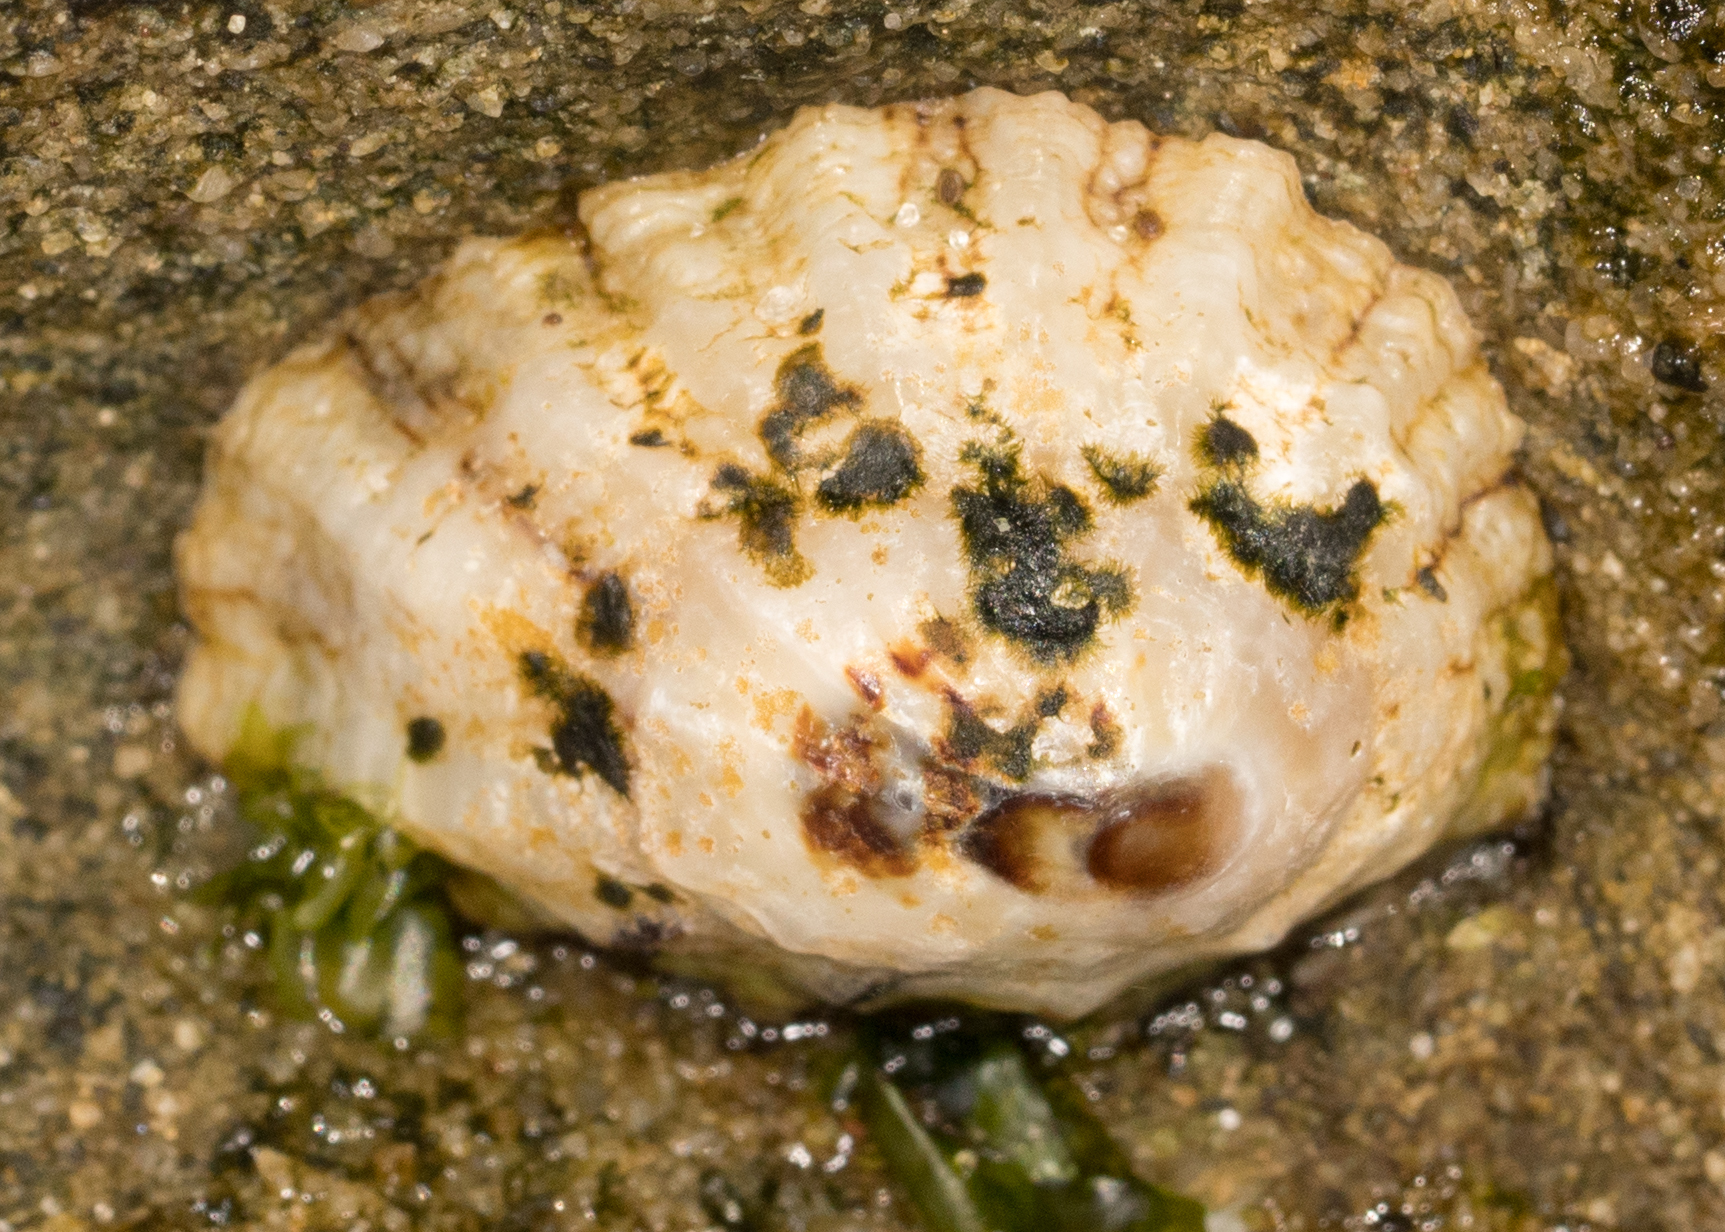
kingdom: Animalia
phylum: Mollusca
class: Gastropoda
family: Lottiidae
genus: Lottia
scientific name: Lottia scabra
